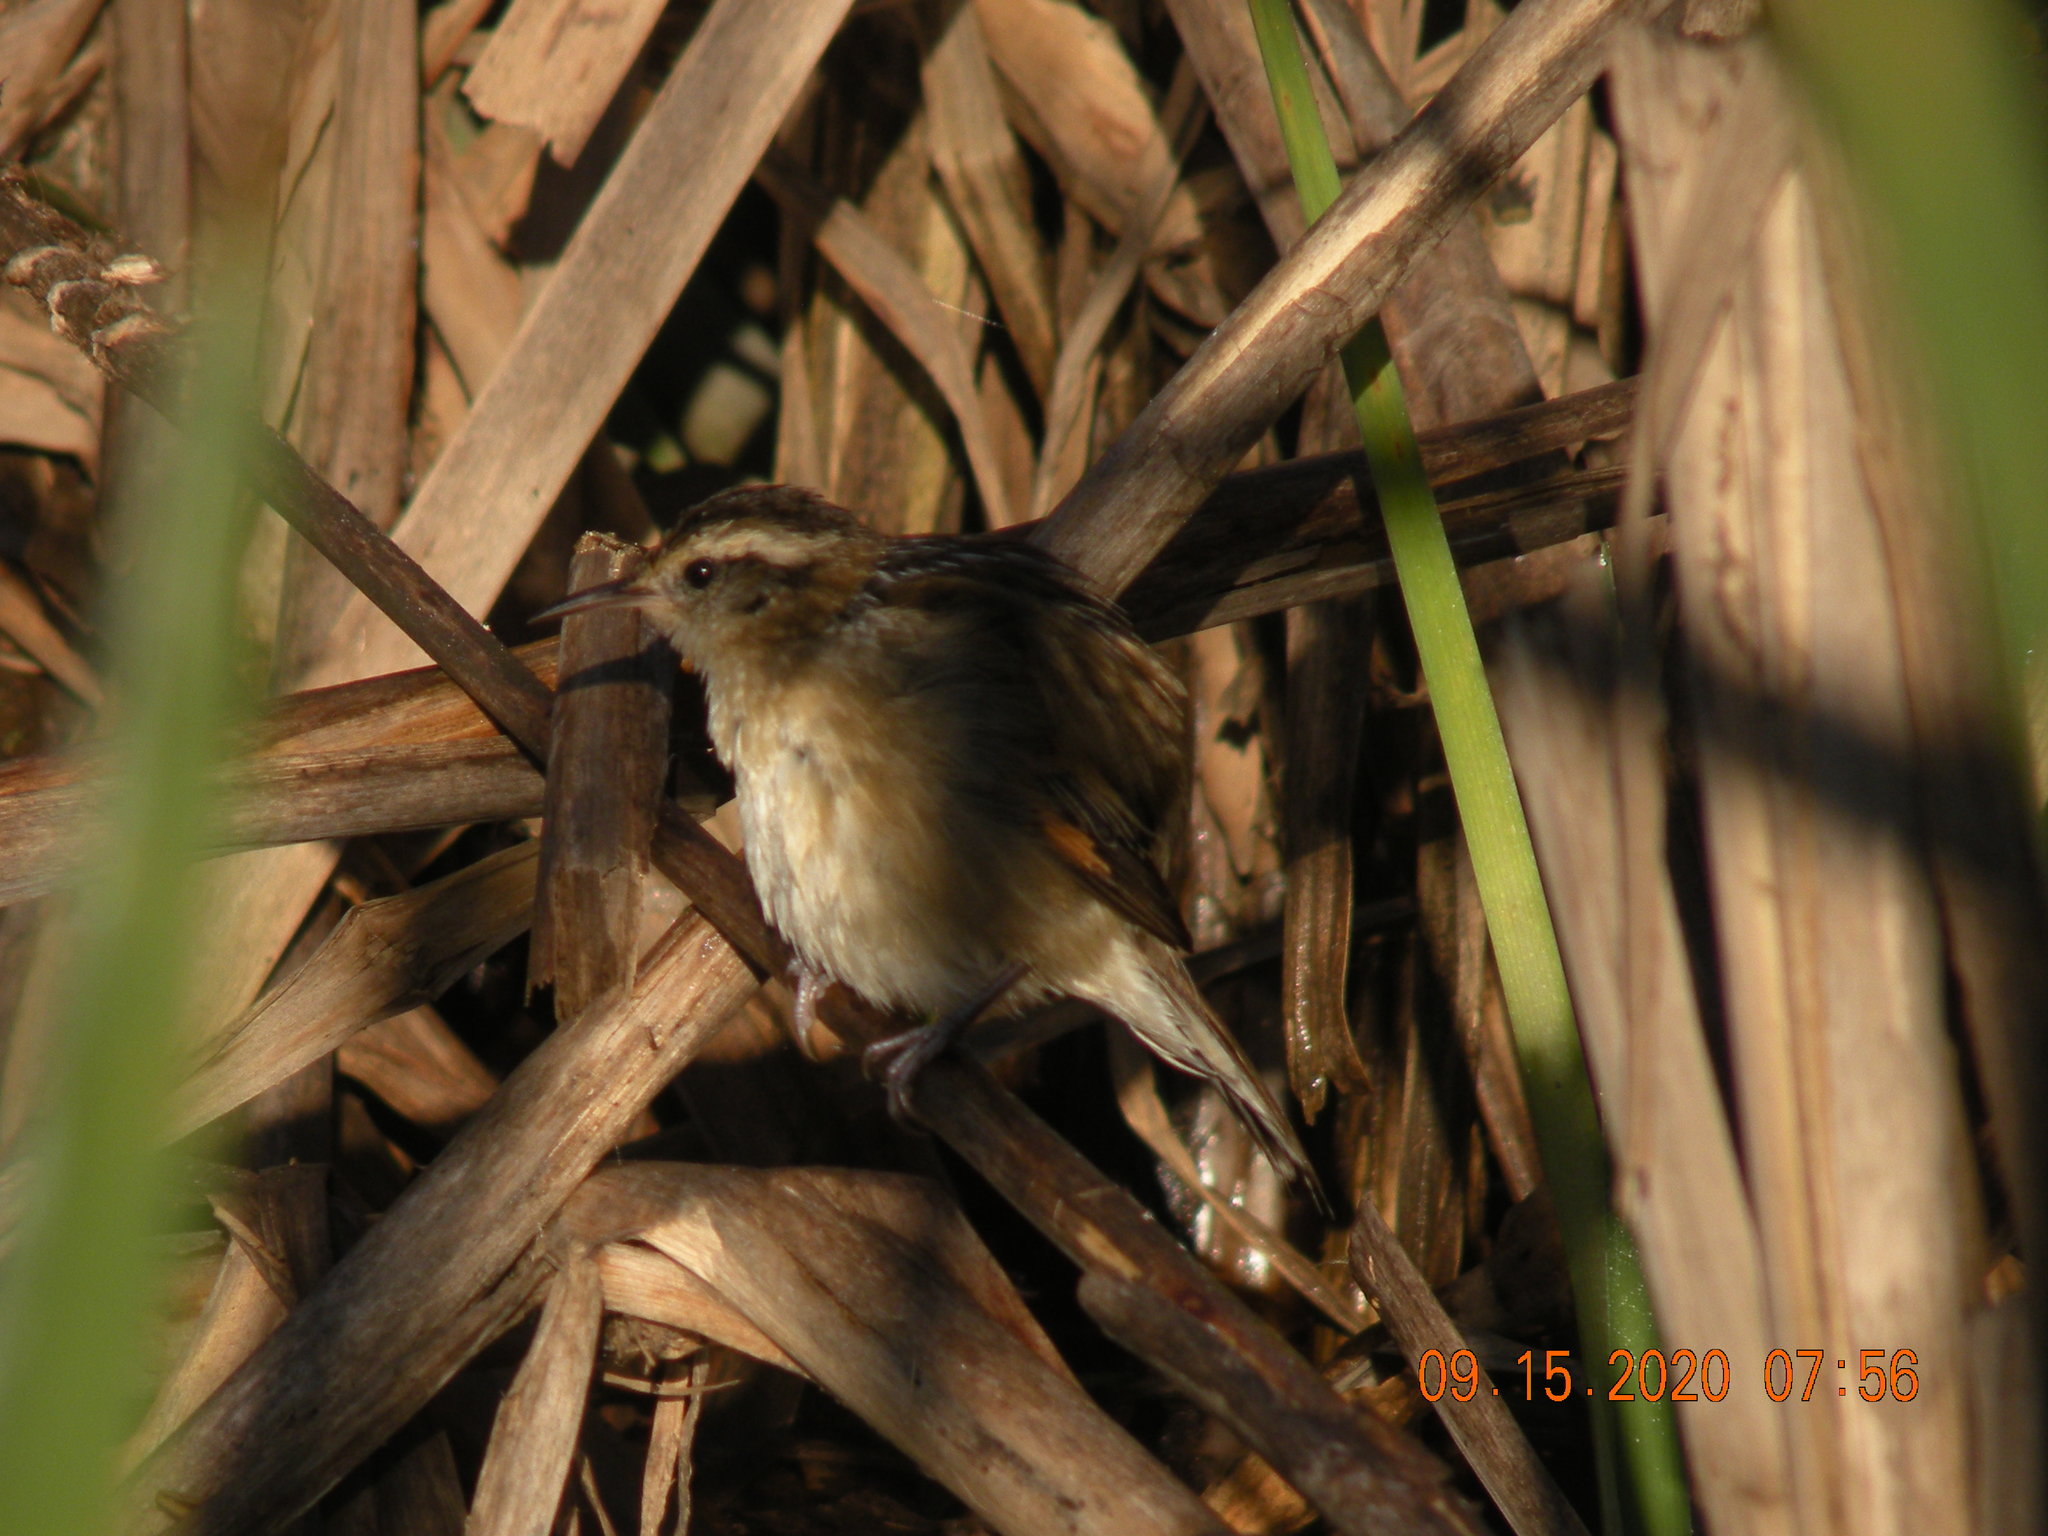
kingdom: Animalia
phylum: Chordata
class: Aves
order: Passeriformes
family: Furnariidae
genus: Phleocryptes
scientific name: Phleocryptes melanops
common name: Wren-like rushbird
